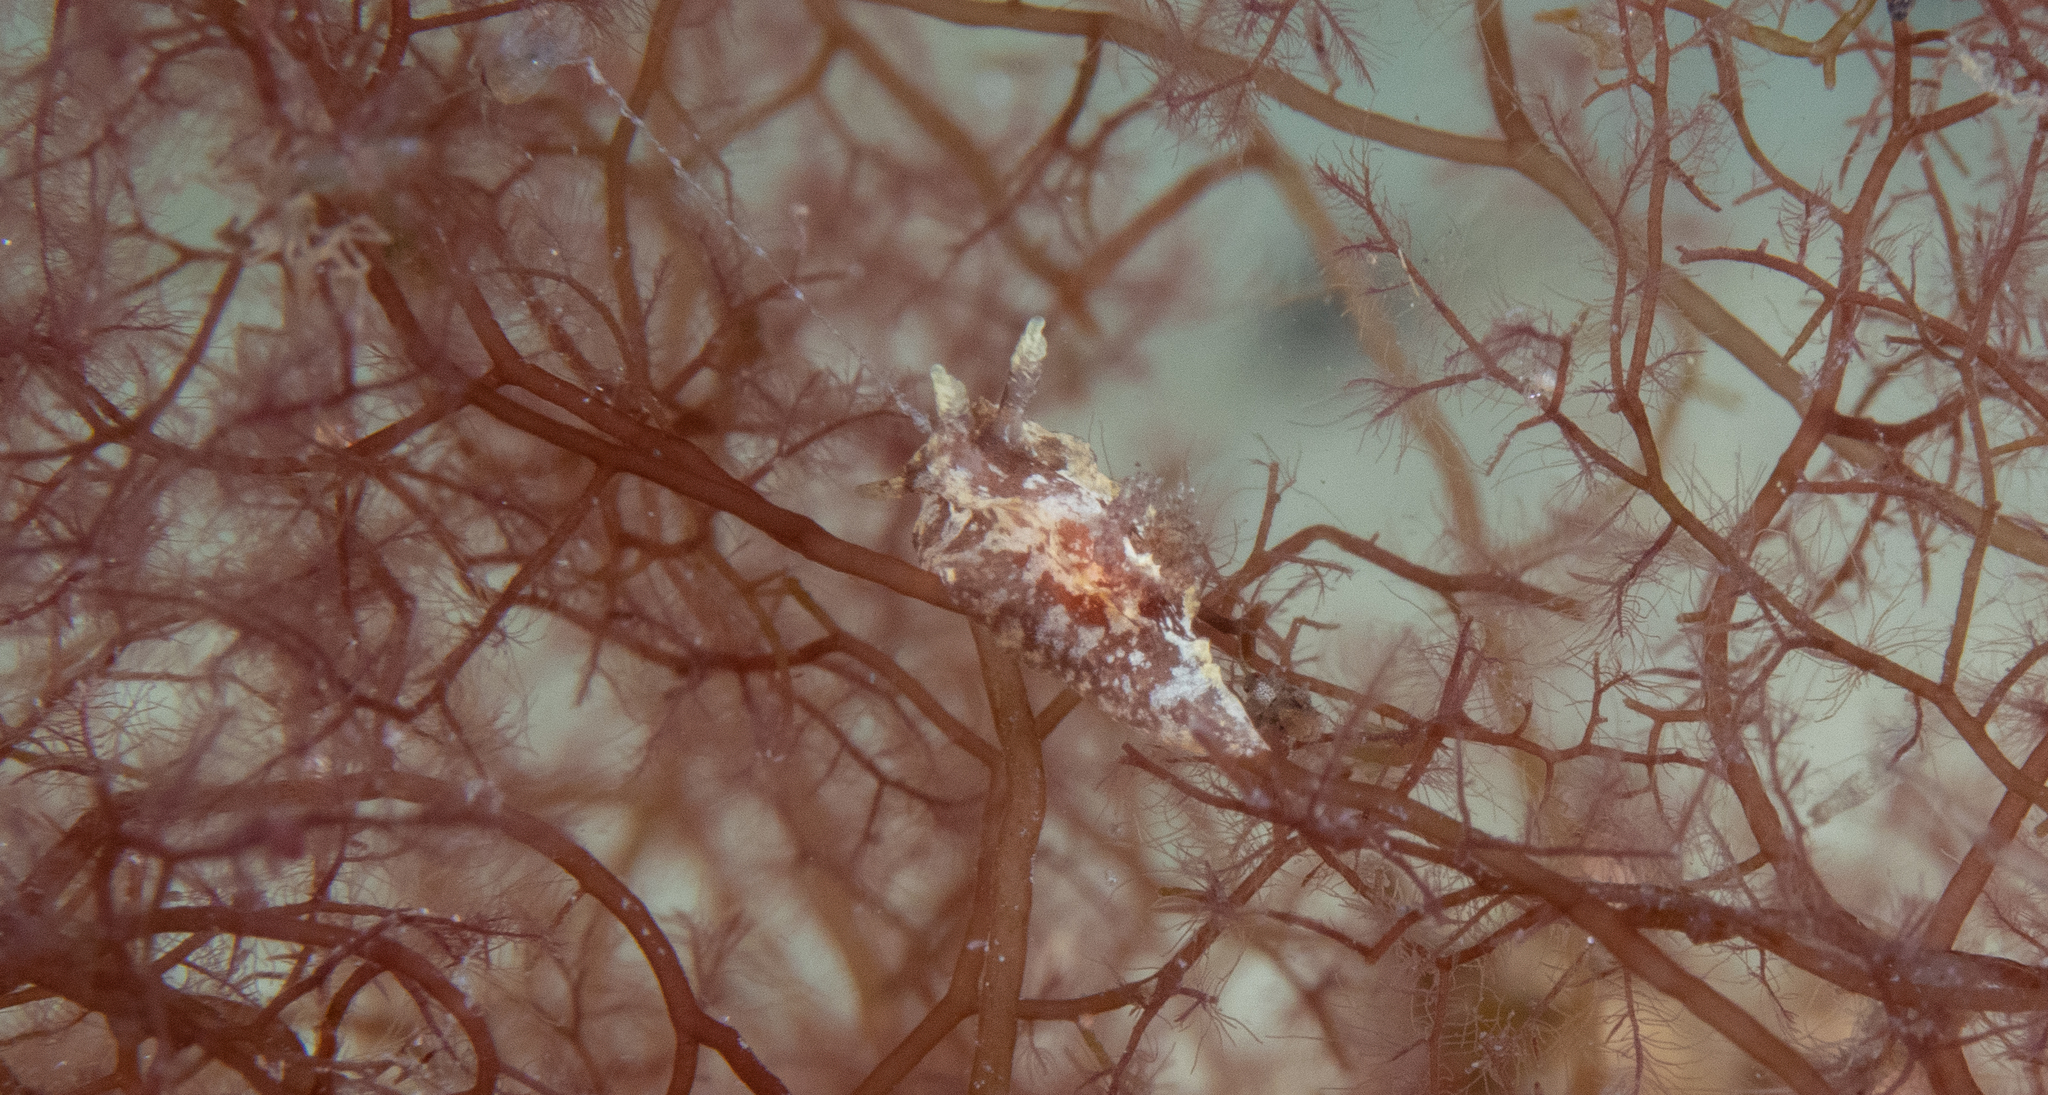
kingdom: Animalia
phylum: Mollusca
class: Gastropoda
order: Nudibranchia
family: Goniodorididae
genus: Pelagella
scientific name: Pelagella
